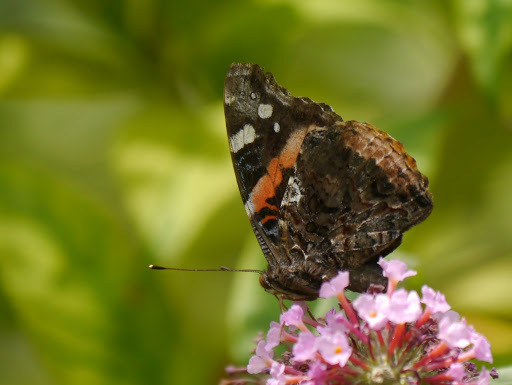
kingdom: Animalia
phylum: Arthropoda
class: Insecta
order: Lepidoptera
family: Nymphalidae
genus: Vanessa
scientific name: Vanessa atalanta
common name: Red admiral
